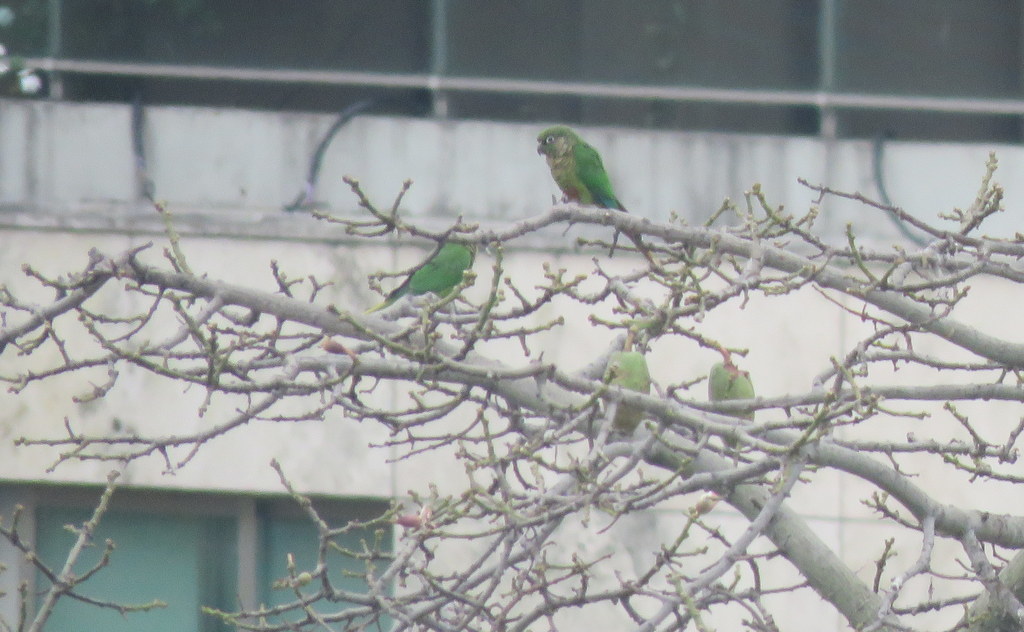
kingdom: Animalia
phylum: Chordata
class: Aves
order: Psittaciformes
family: Psittacidae
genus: Pyrrhura
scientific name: Pyrrhura frontalis
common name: Maroon-bellied parakeet
